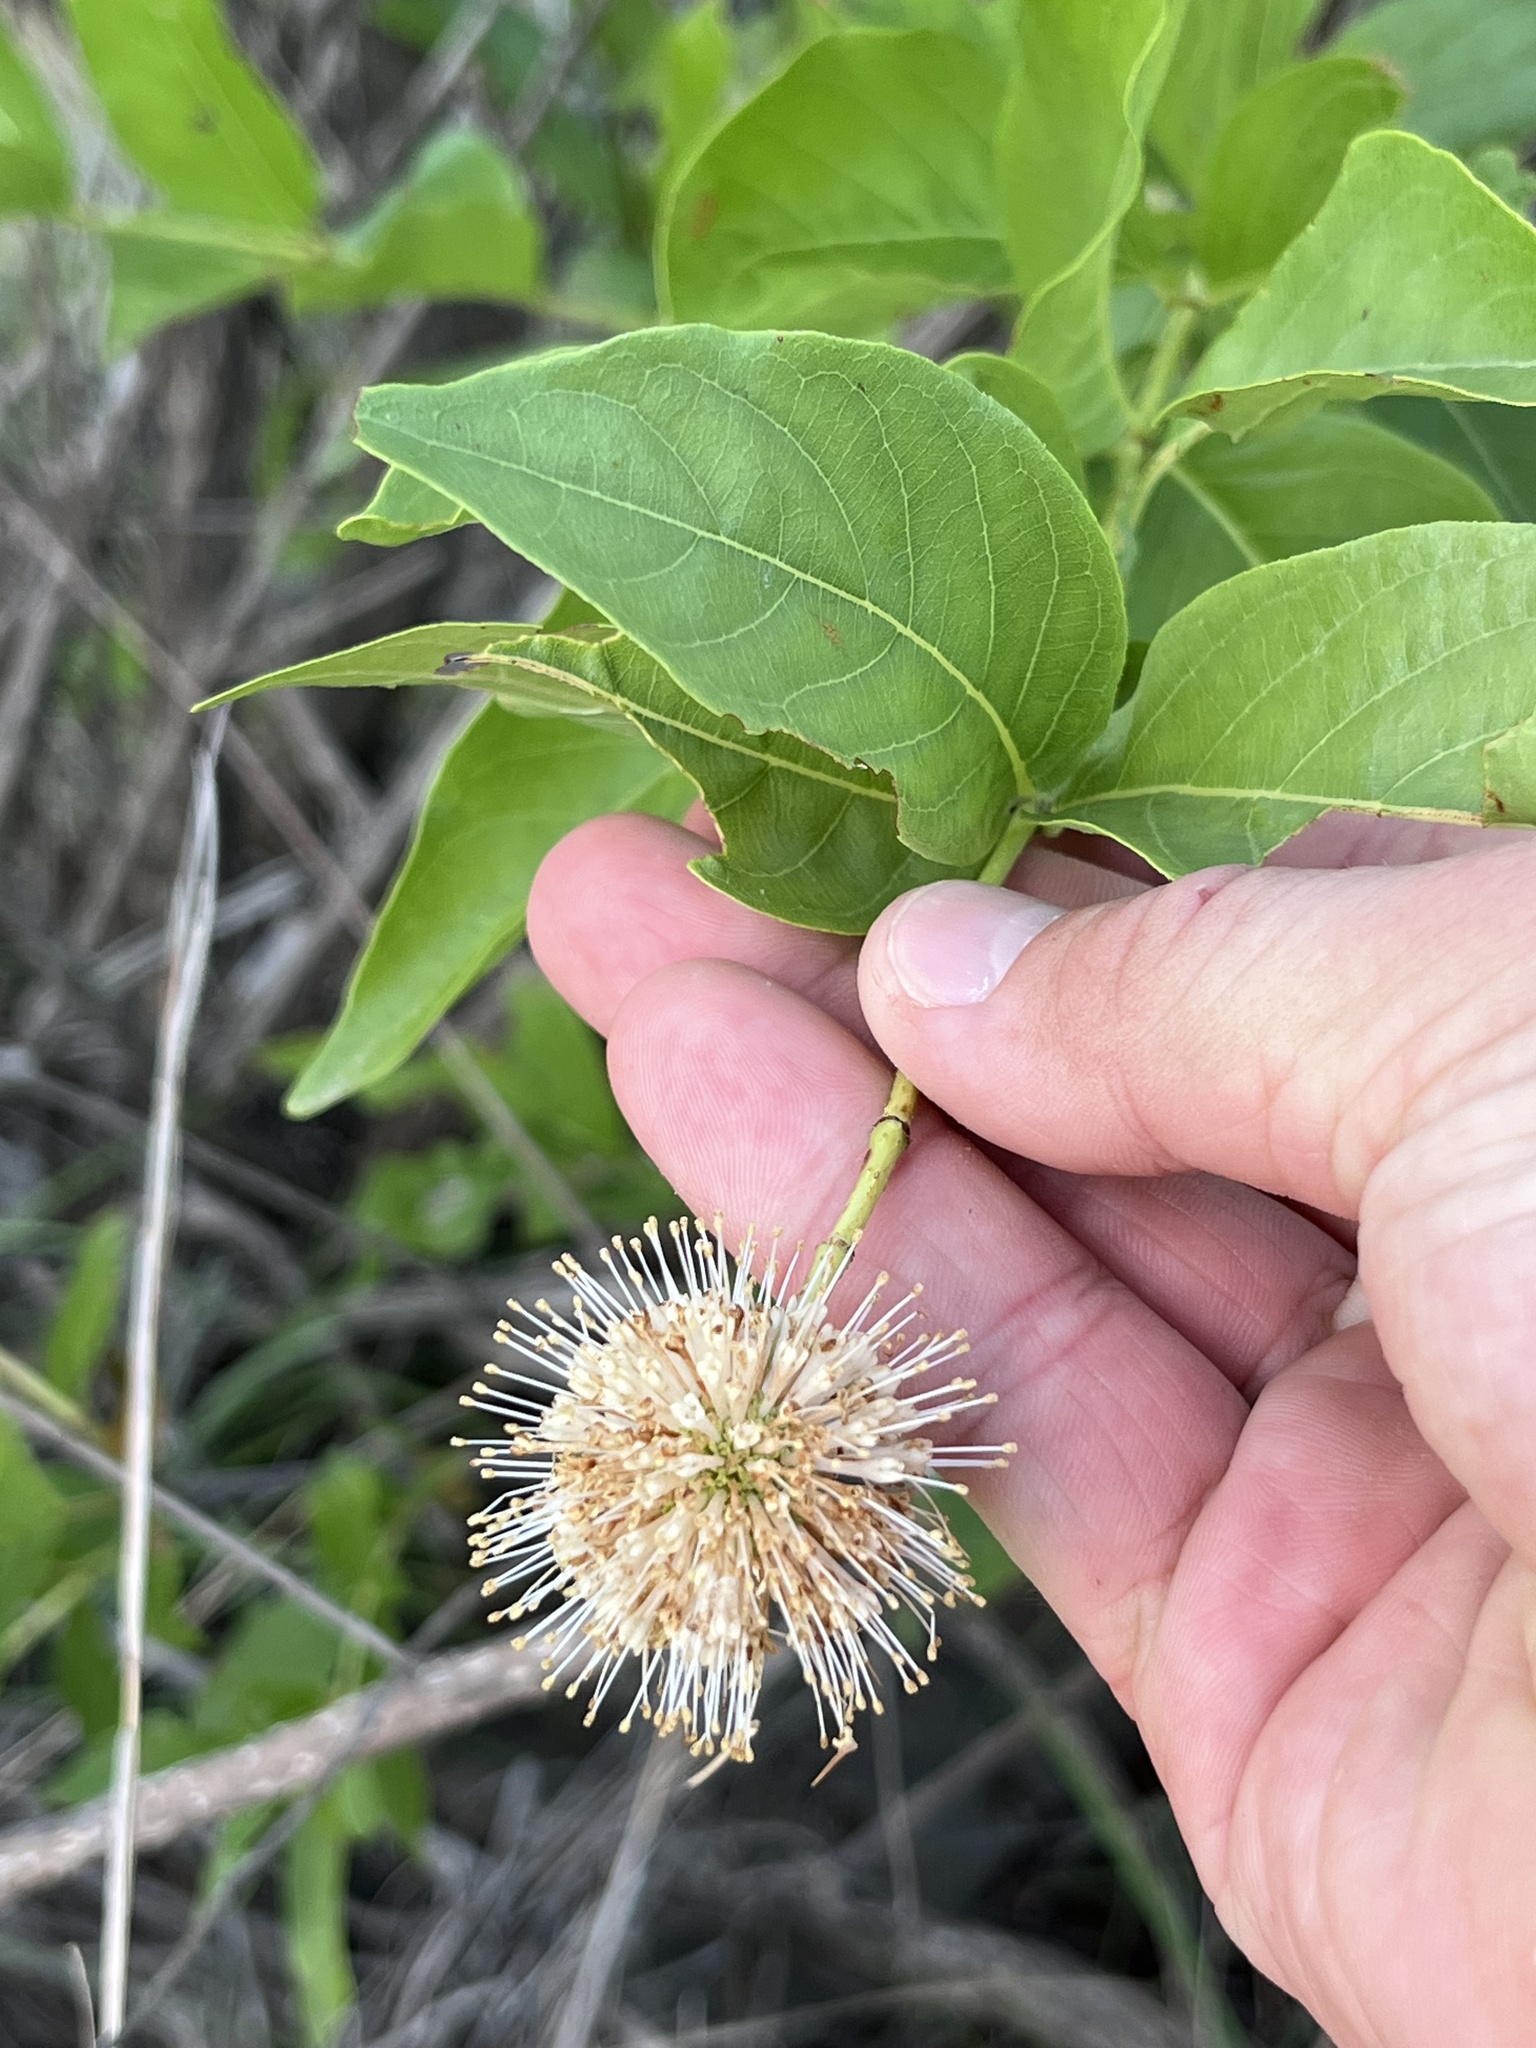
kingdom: Plantae
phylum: Tracheophyta
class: Magnoliopsida
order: Gentianales
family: Rubiaceae
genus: Cephalanthus
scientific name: Cephalanthus occidentalis
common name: Button-willow
